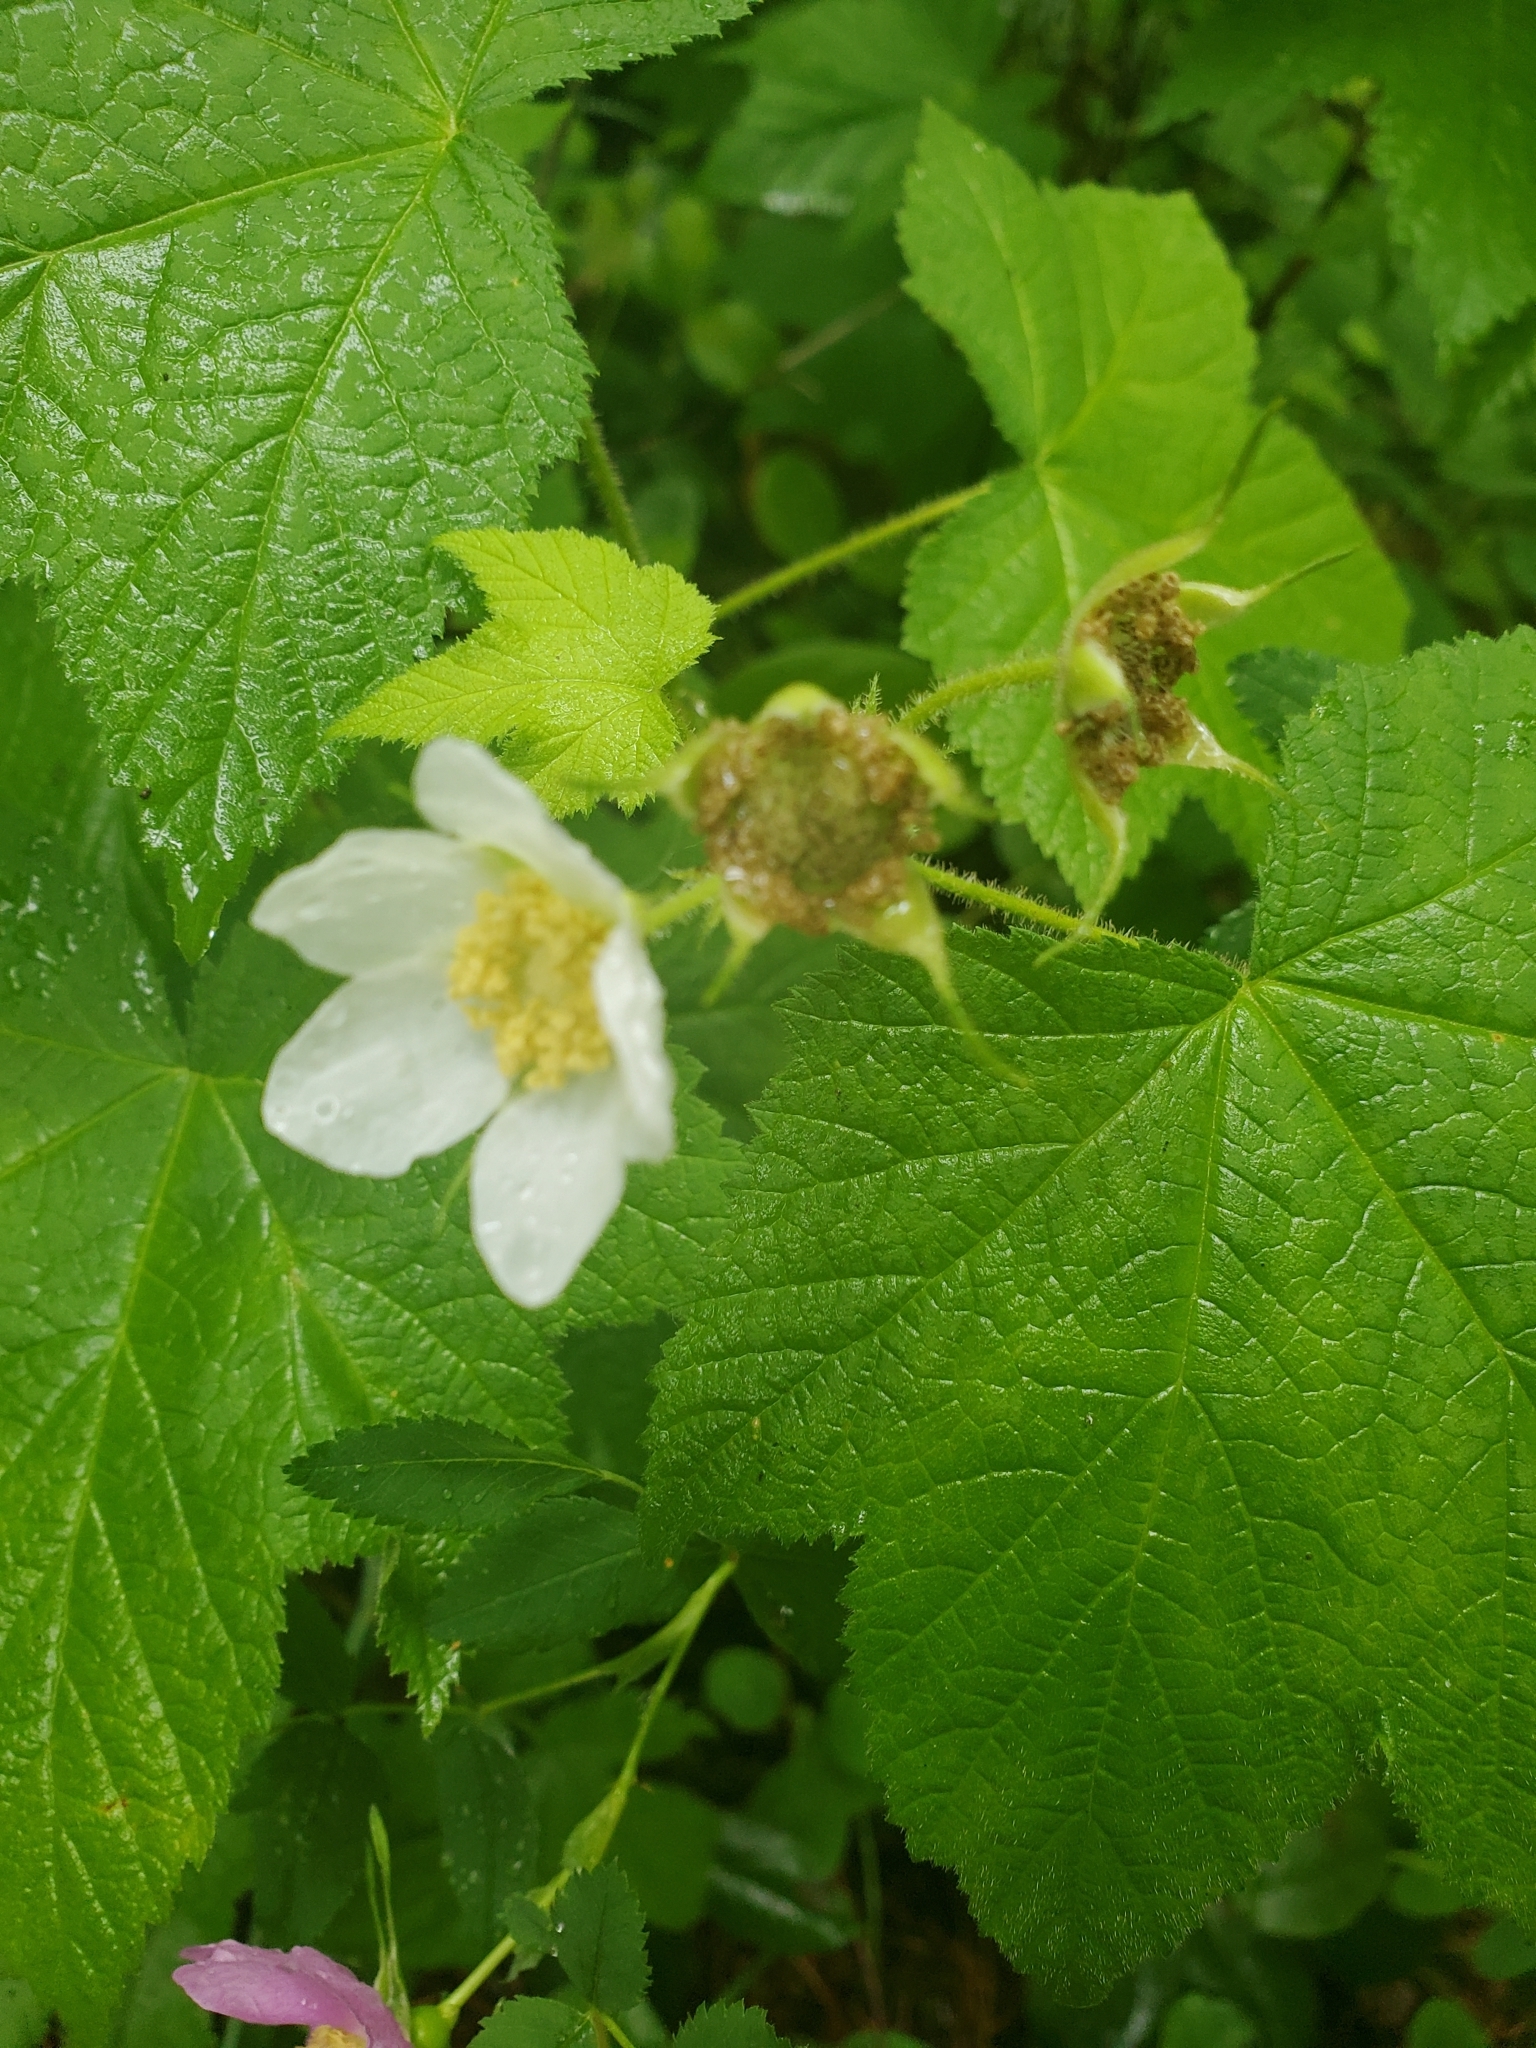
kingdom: Plantae
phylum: Tracheophyta
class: Magnoliopsida
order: Rosales
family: Rosaceae
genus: Rubus
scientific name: Rubus parviflorus
